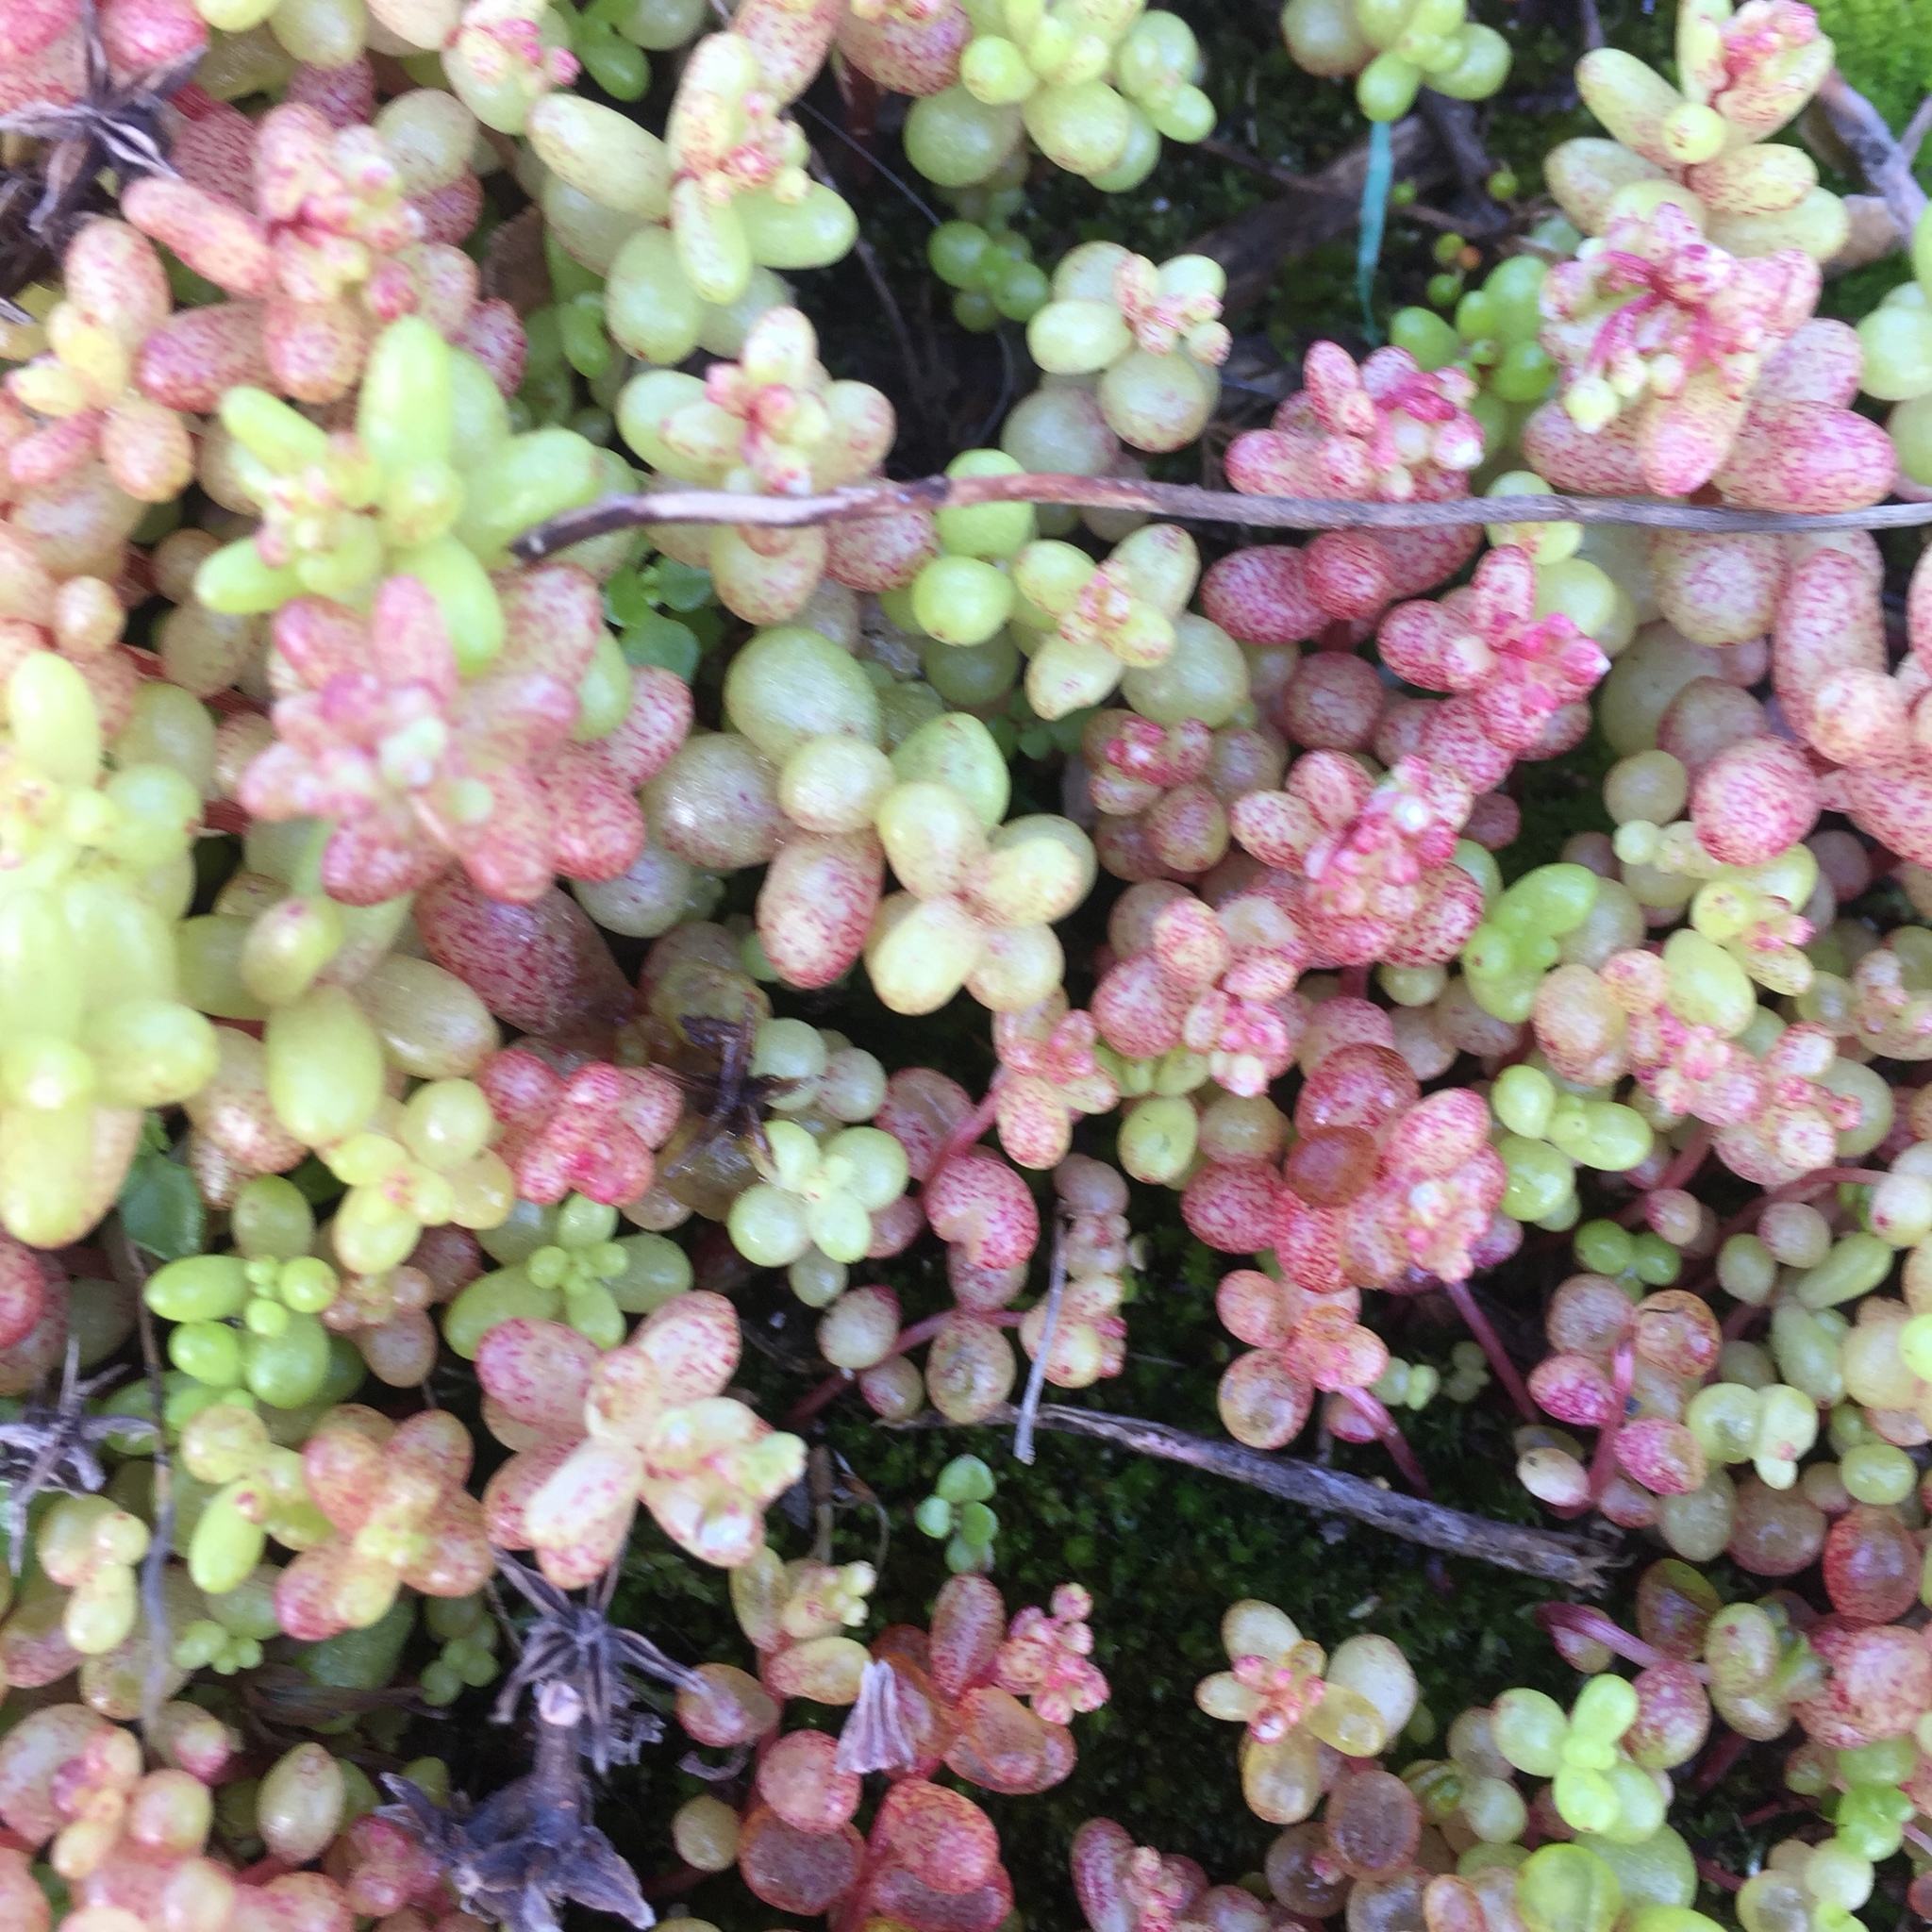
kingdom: Plantae
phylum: Tracheophyta
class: Magnoliopsida
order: Saxifragales
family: Crassulaceae
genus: Sedum
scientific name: Sedum caeruleum
